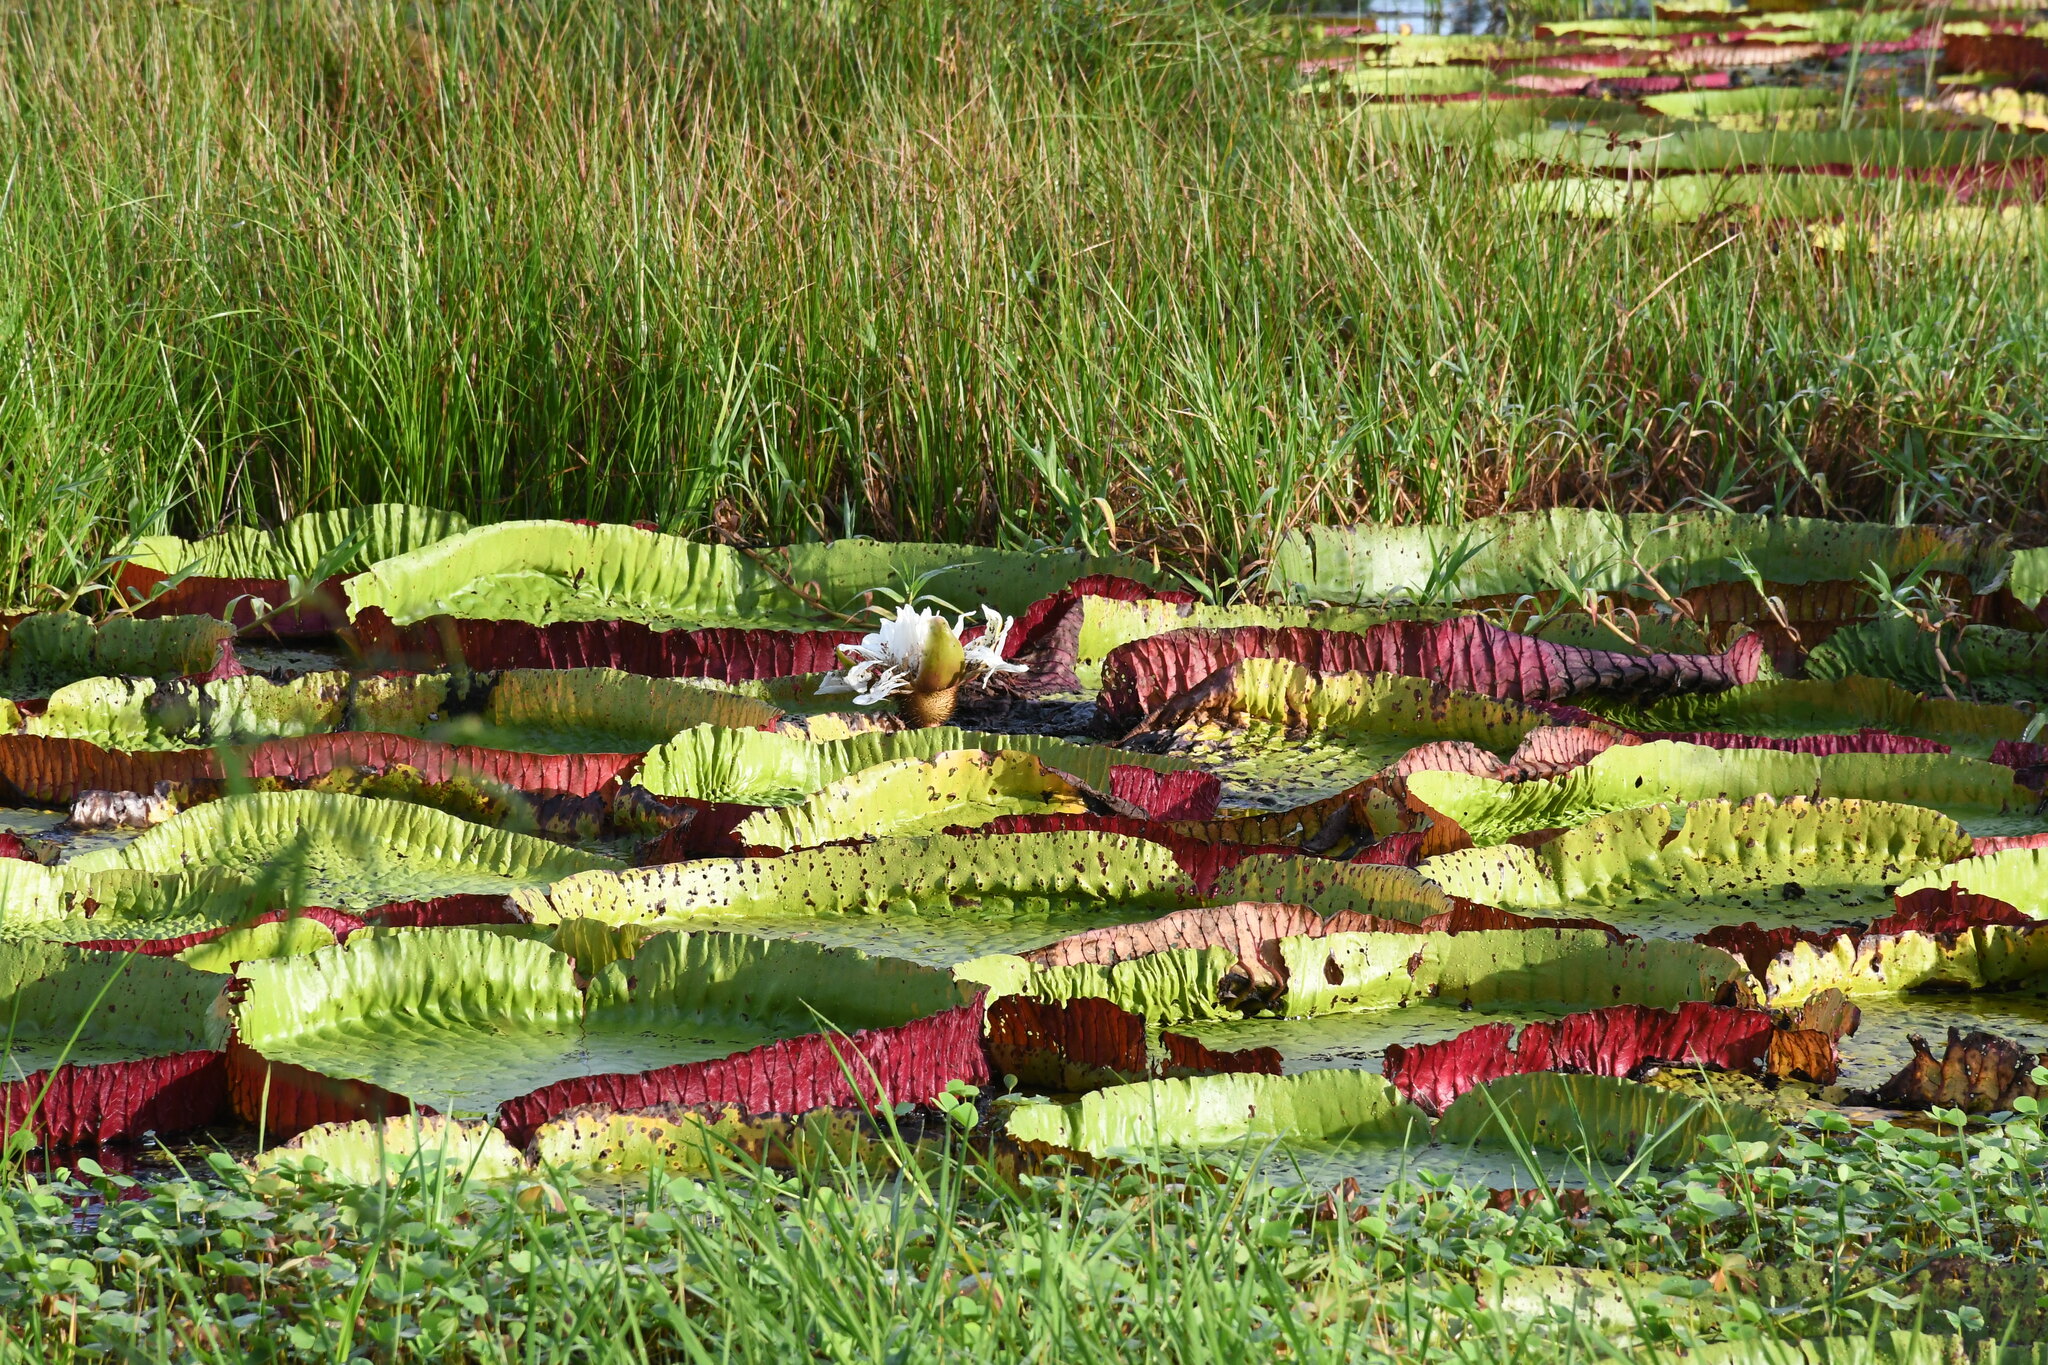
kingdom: Plantae
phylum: Tracheophyta
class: Magnoliopsida
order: Nymphaeales
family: Nymphaeaceae
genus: Victoria
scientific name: Victoria boliviana
